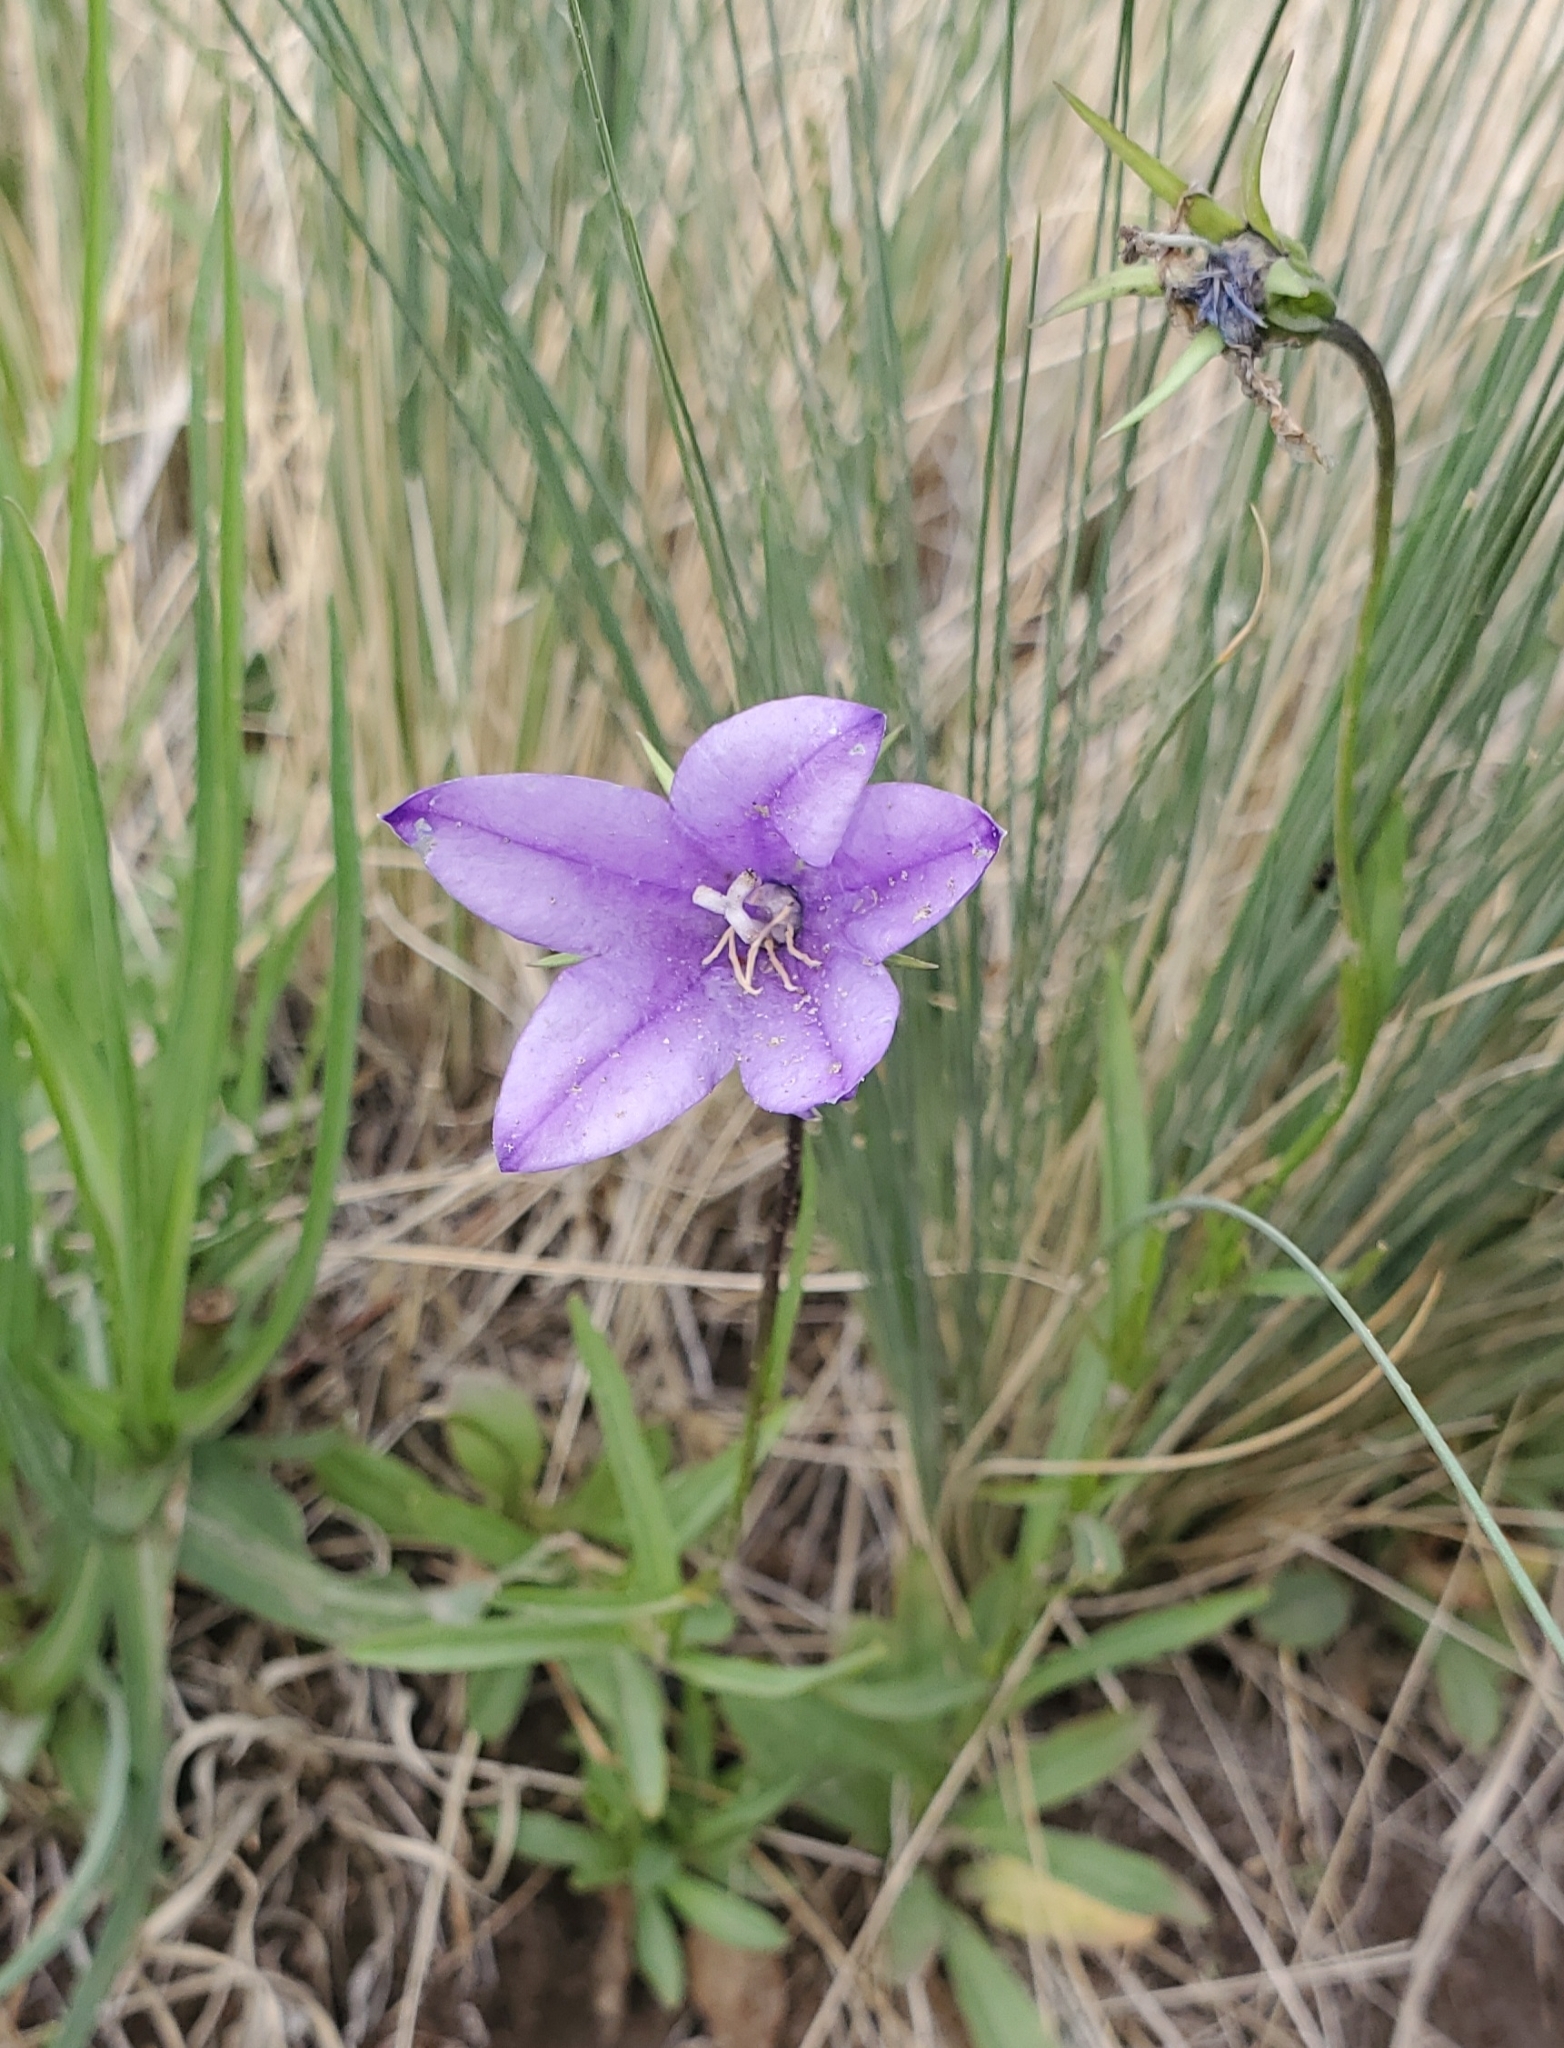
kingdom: Plantae
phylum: Tracheophyta
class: Magnoliopsida
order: Asterales
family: Campanulaceae
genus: Campanula
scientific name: Campanula parryi
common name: Rocky mountain bellflower
